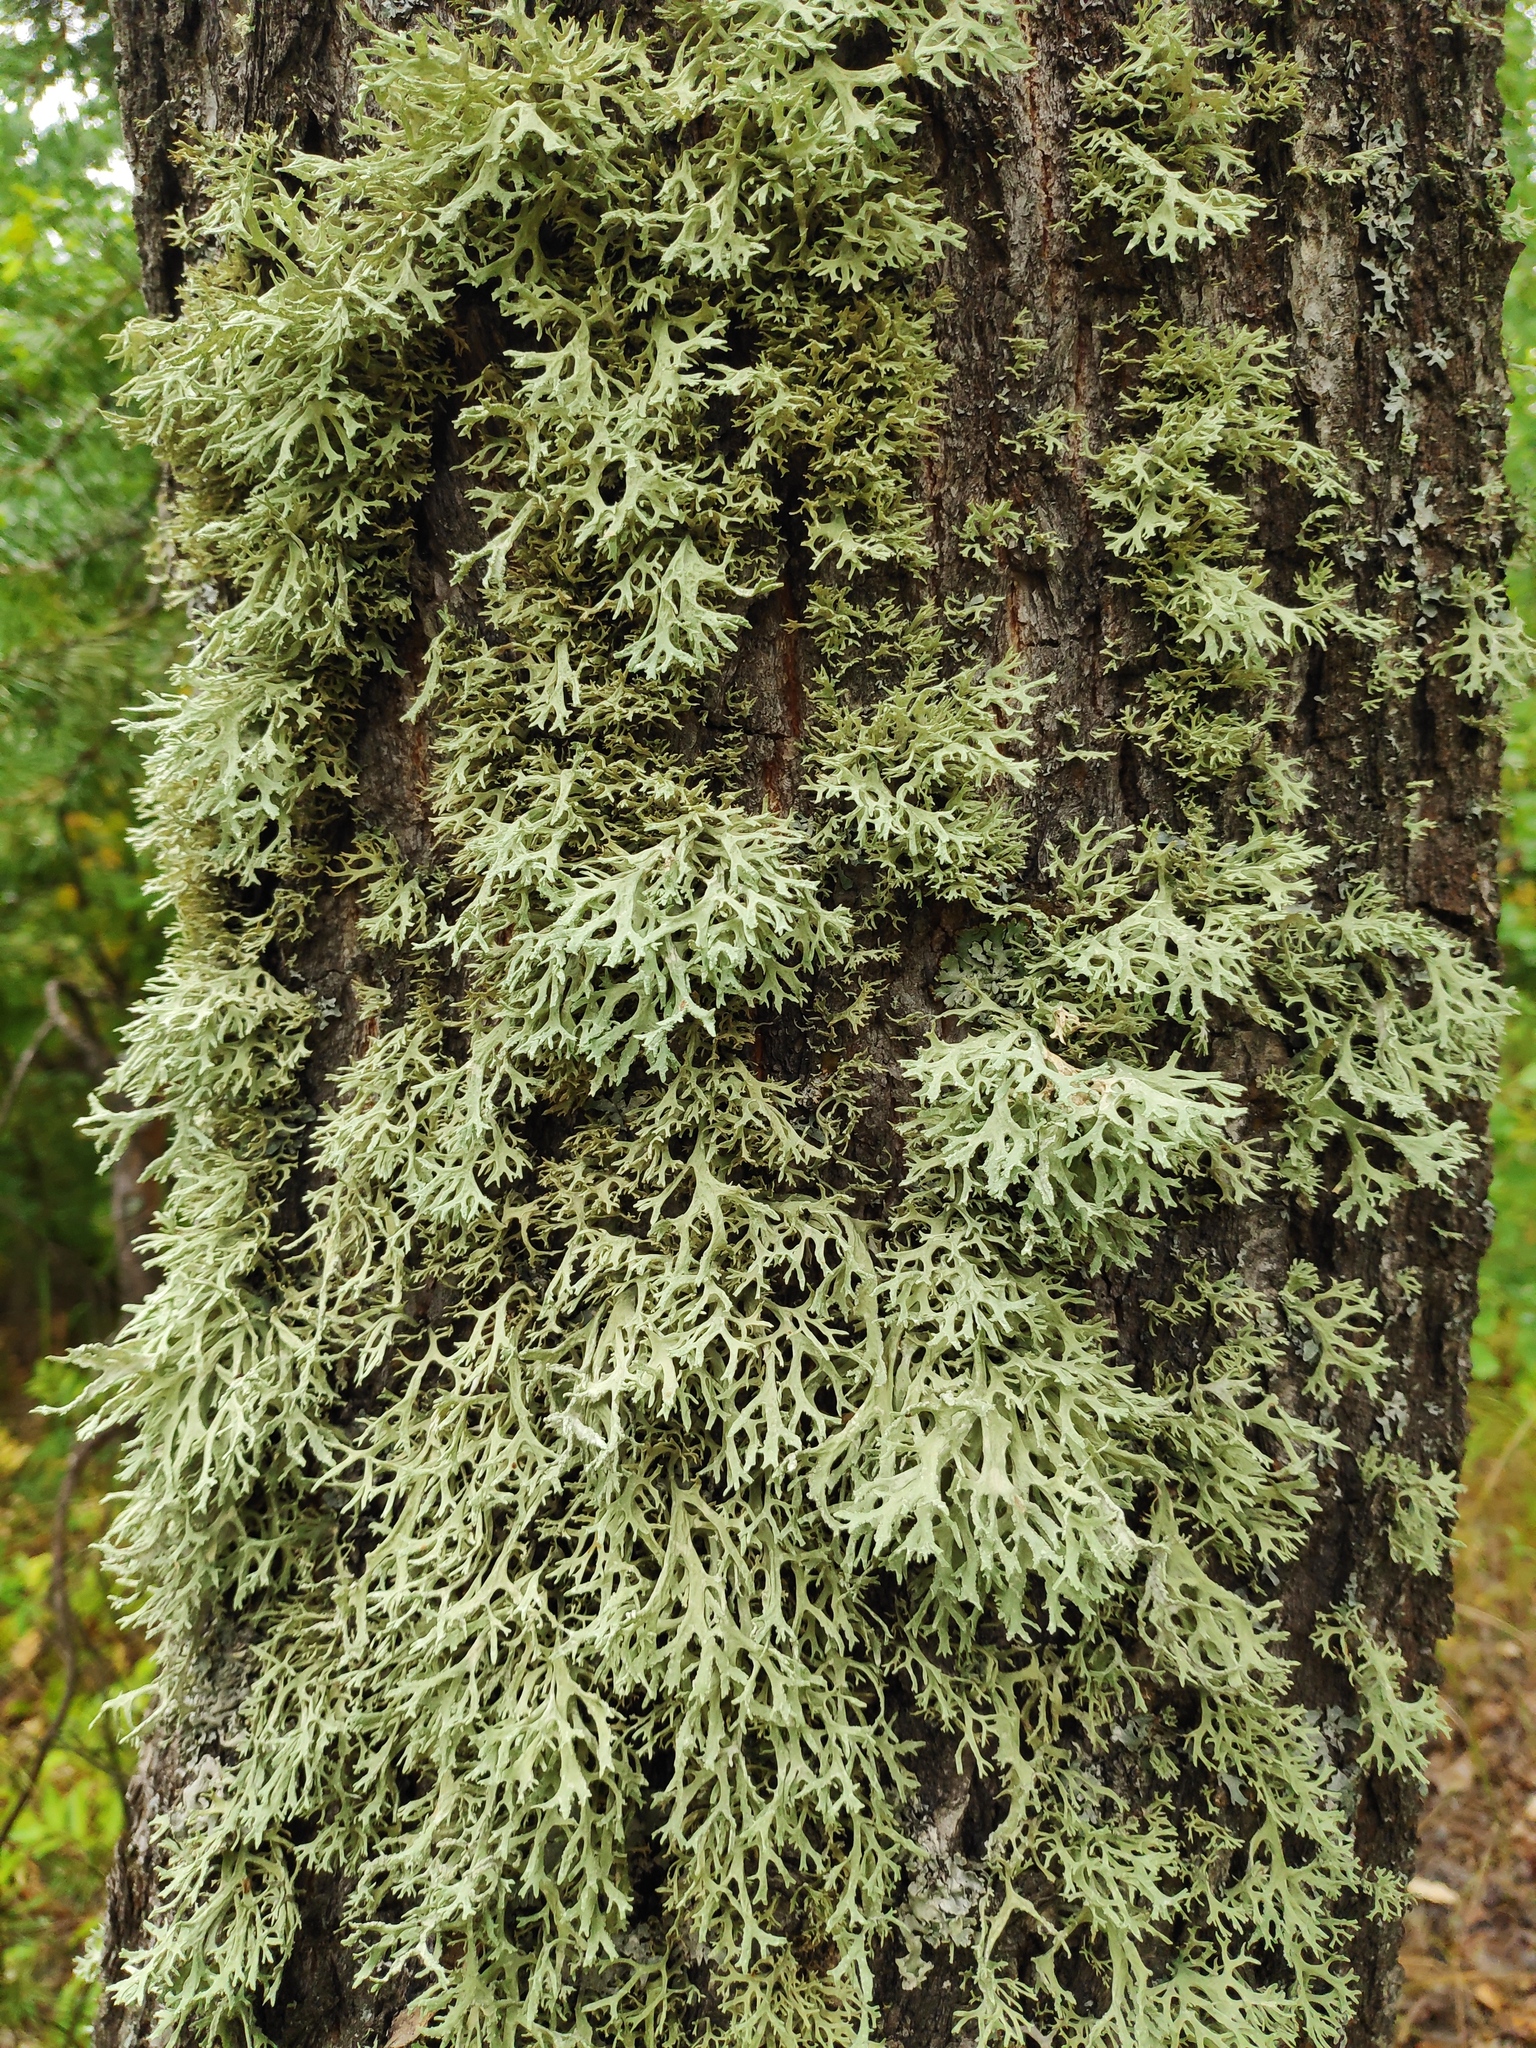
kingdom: Fungi
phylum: Ascomycota
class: Lecanoromycetes
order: Lecanorales
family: Parmeliaceae
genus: Evernia
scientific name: Evernia prunastri
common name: Oak moss
